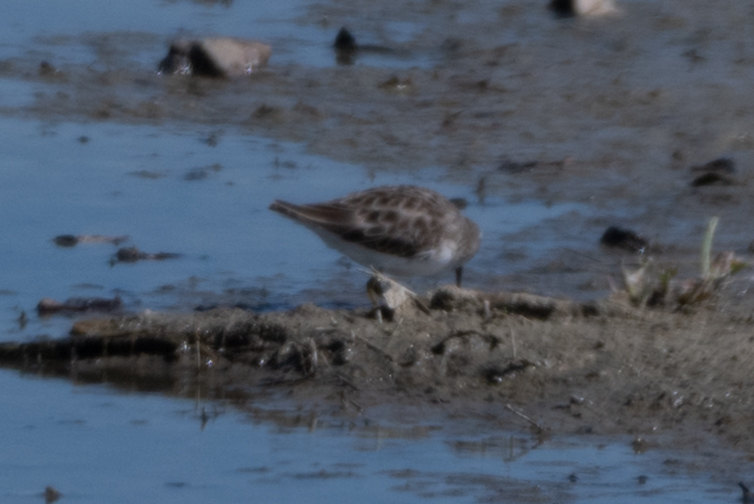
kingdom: Animalia
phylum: Chordata
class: Aves
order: Charadriiformes
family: Scolopacidae
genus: Calidris
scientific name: Calidris minutilla
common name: Least sandpiper
